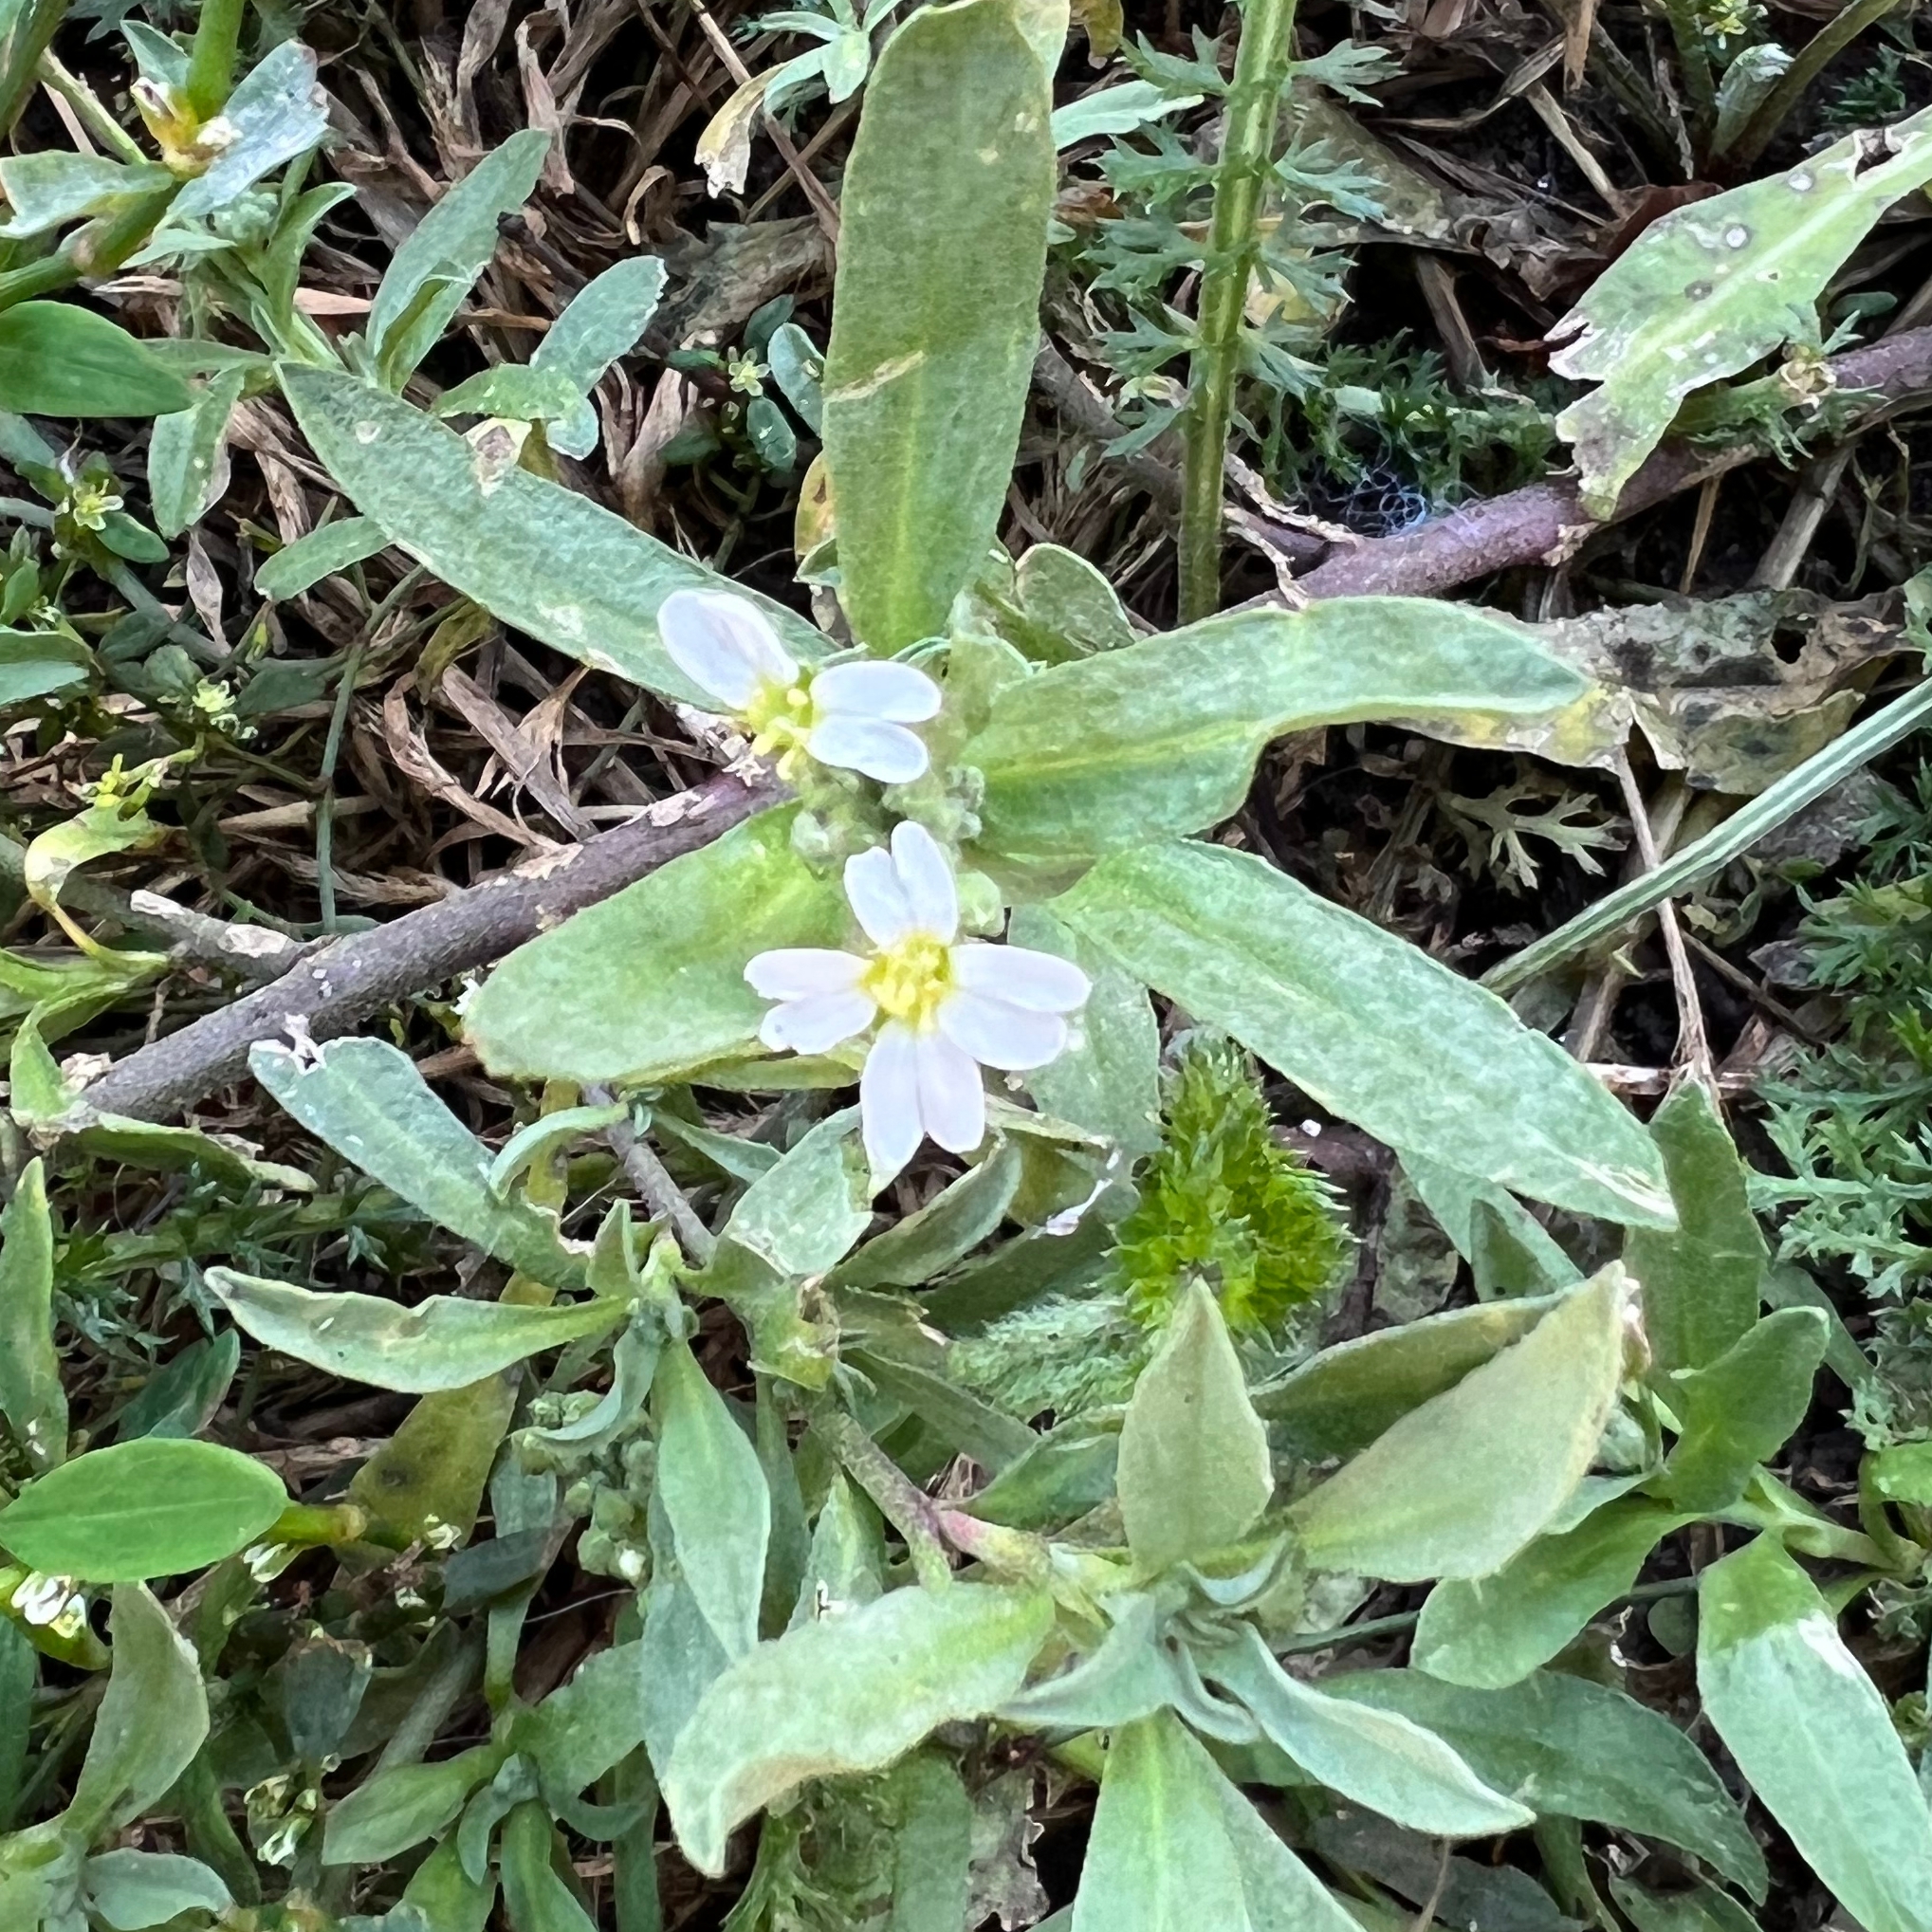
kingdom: Plantae
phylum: Tracheophyta
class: Magnoliopsida
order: Brassicales
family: Brassicaceae
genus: Berteroa
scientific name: Berteroa incana
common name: Hoary alison
